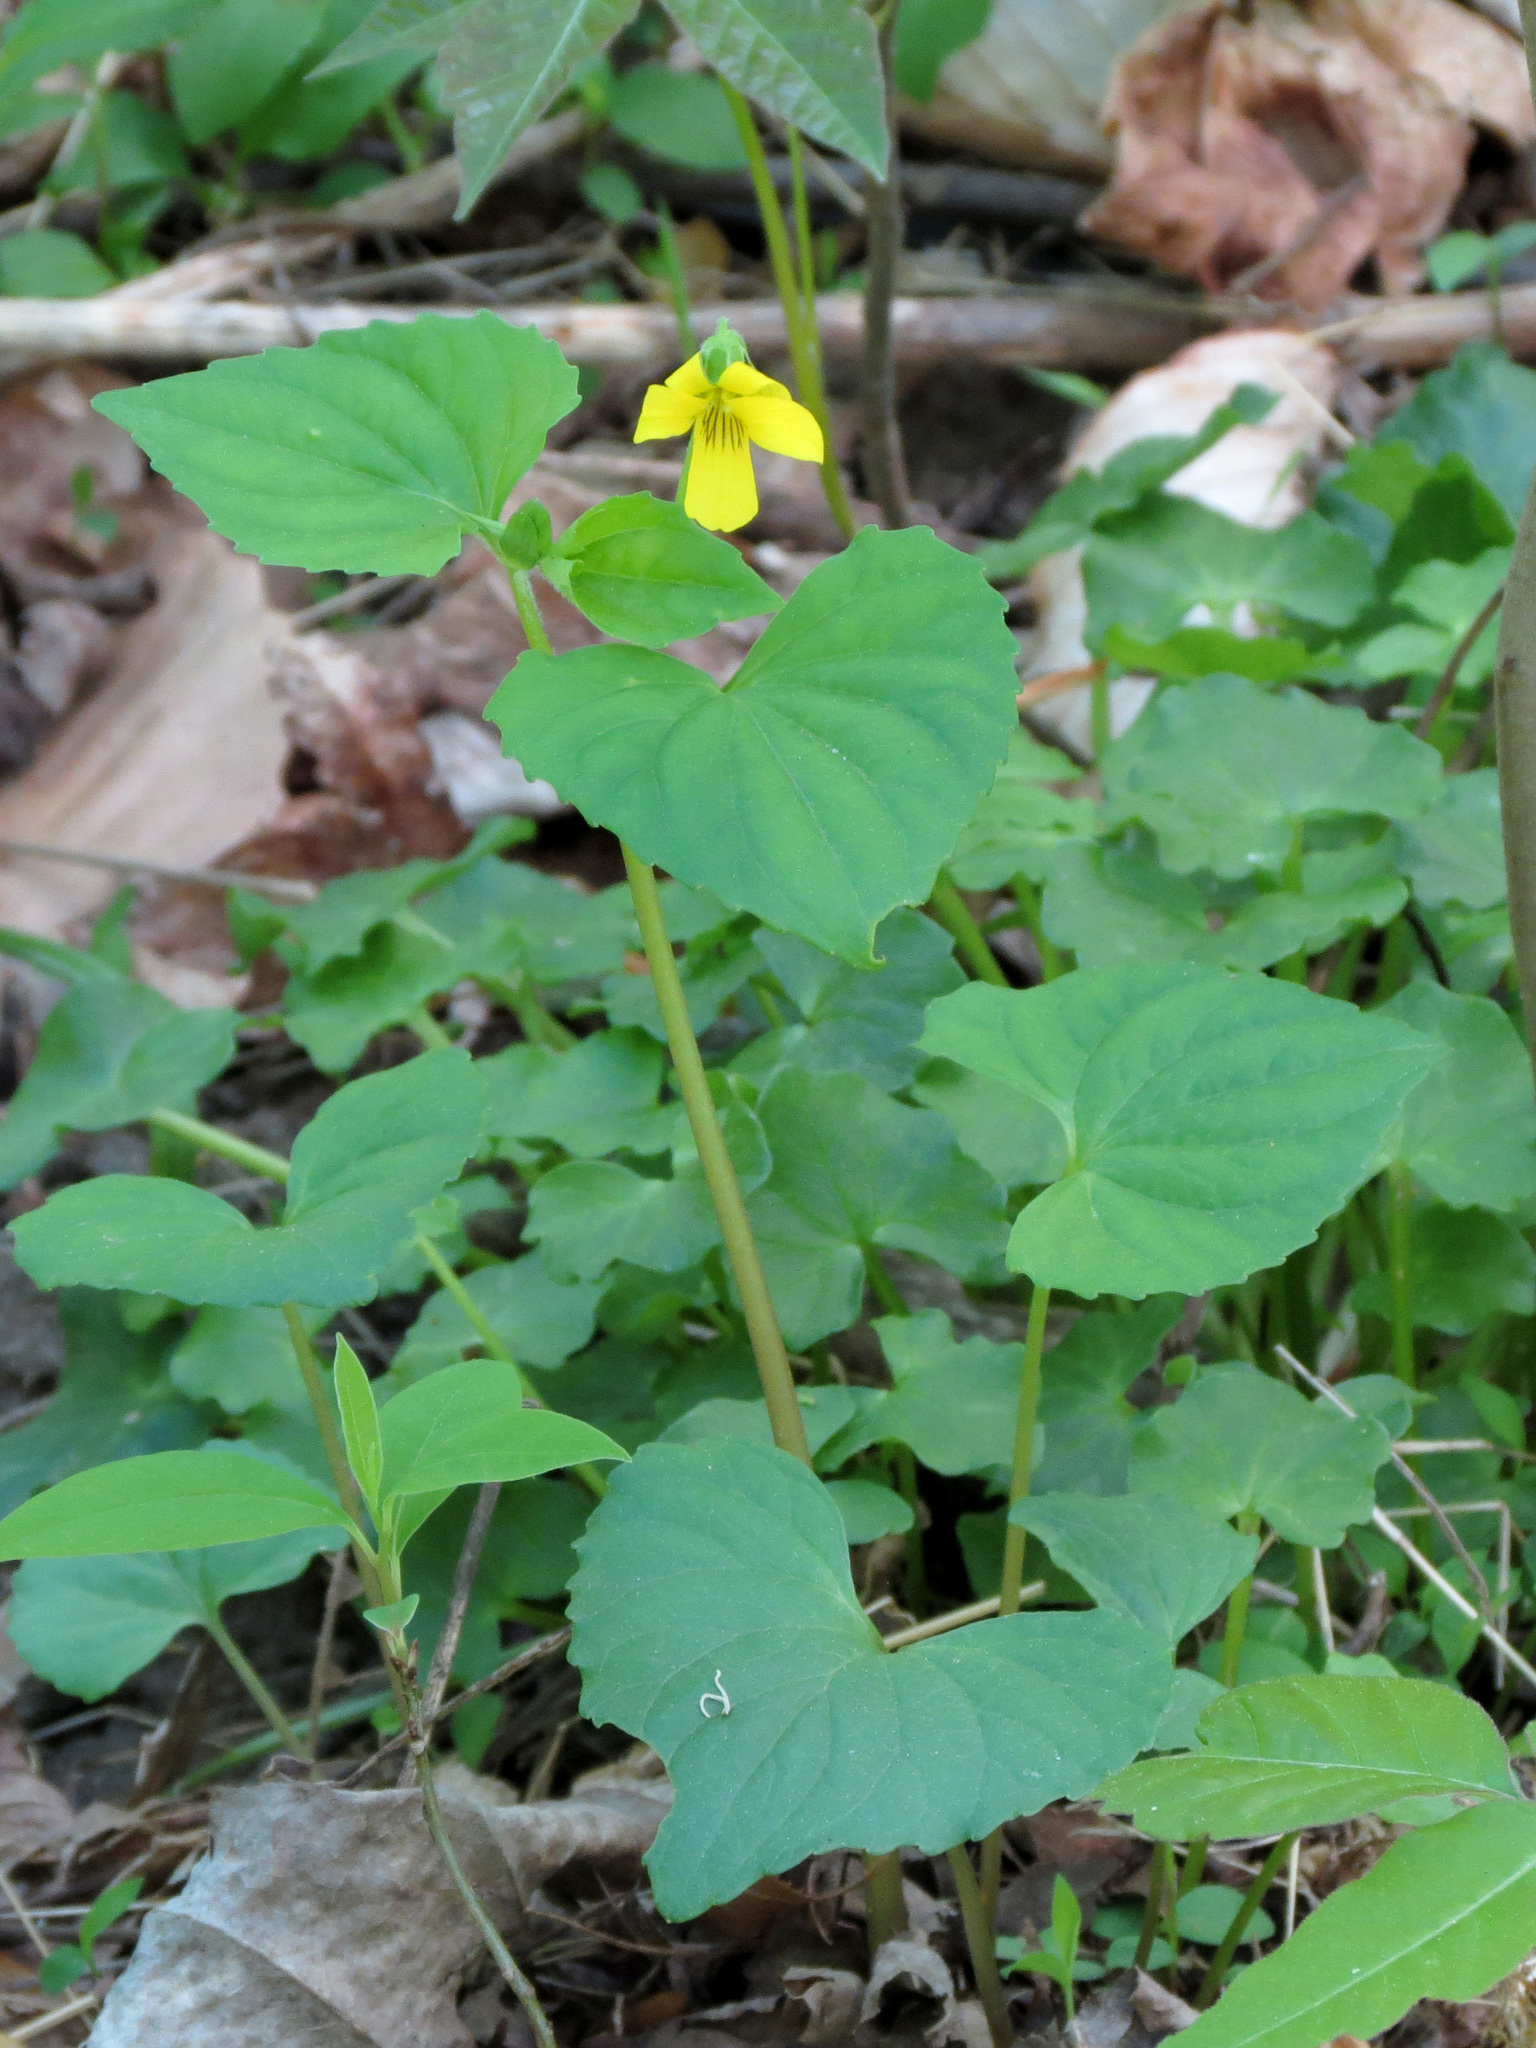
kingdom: Plantae
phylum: Tracheophyta
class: Magnoliopsida
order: Malpighiales
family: Violaceae
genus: Viola
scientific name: Viola eriocarpa
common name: Smooth yellow violet
